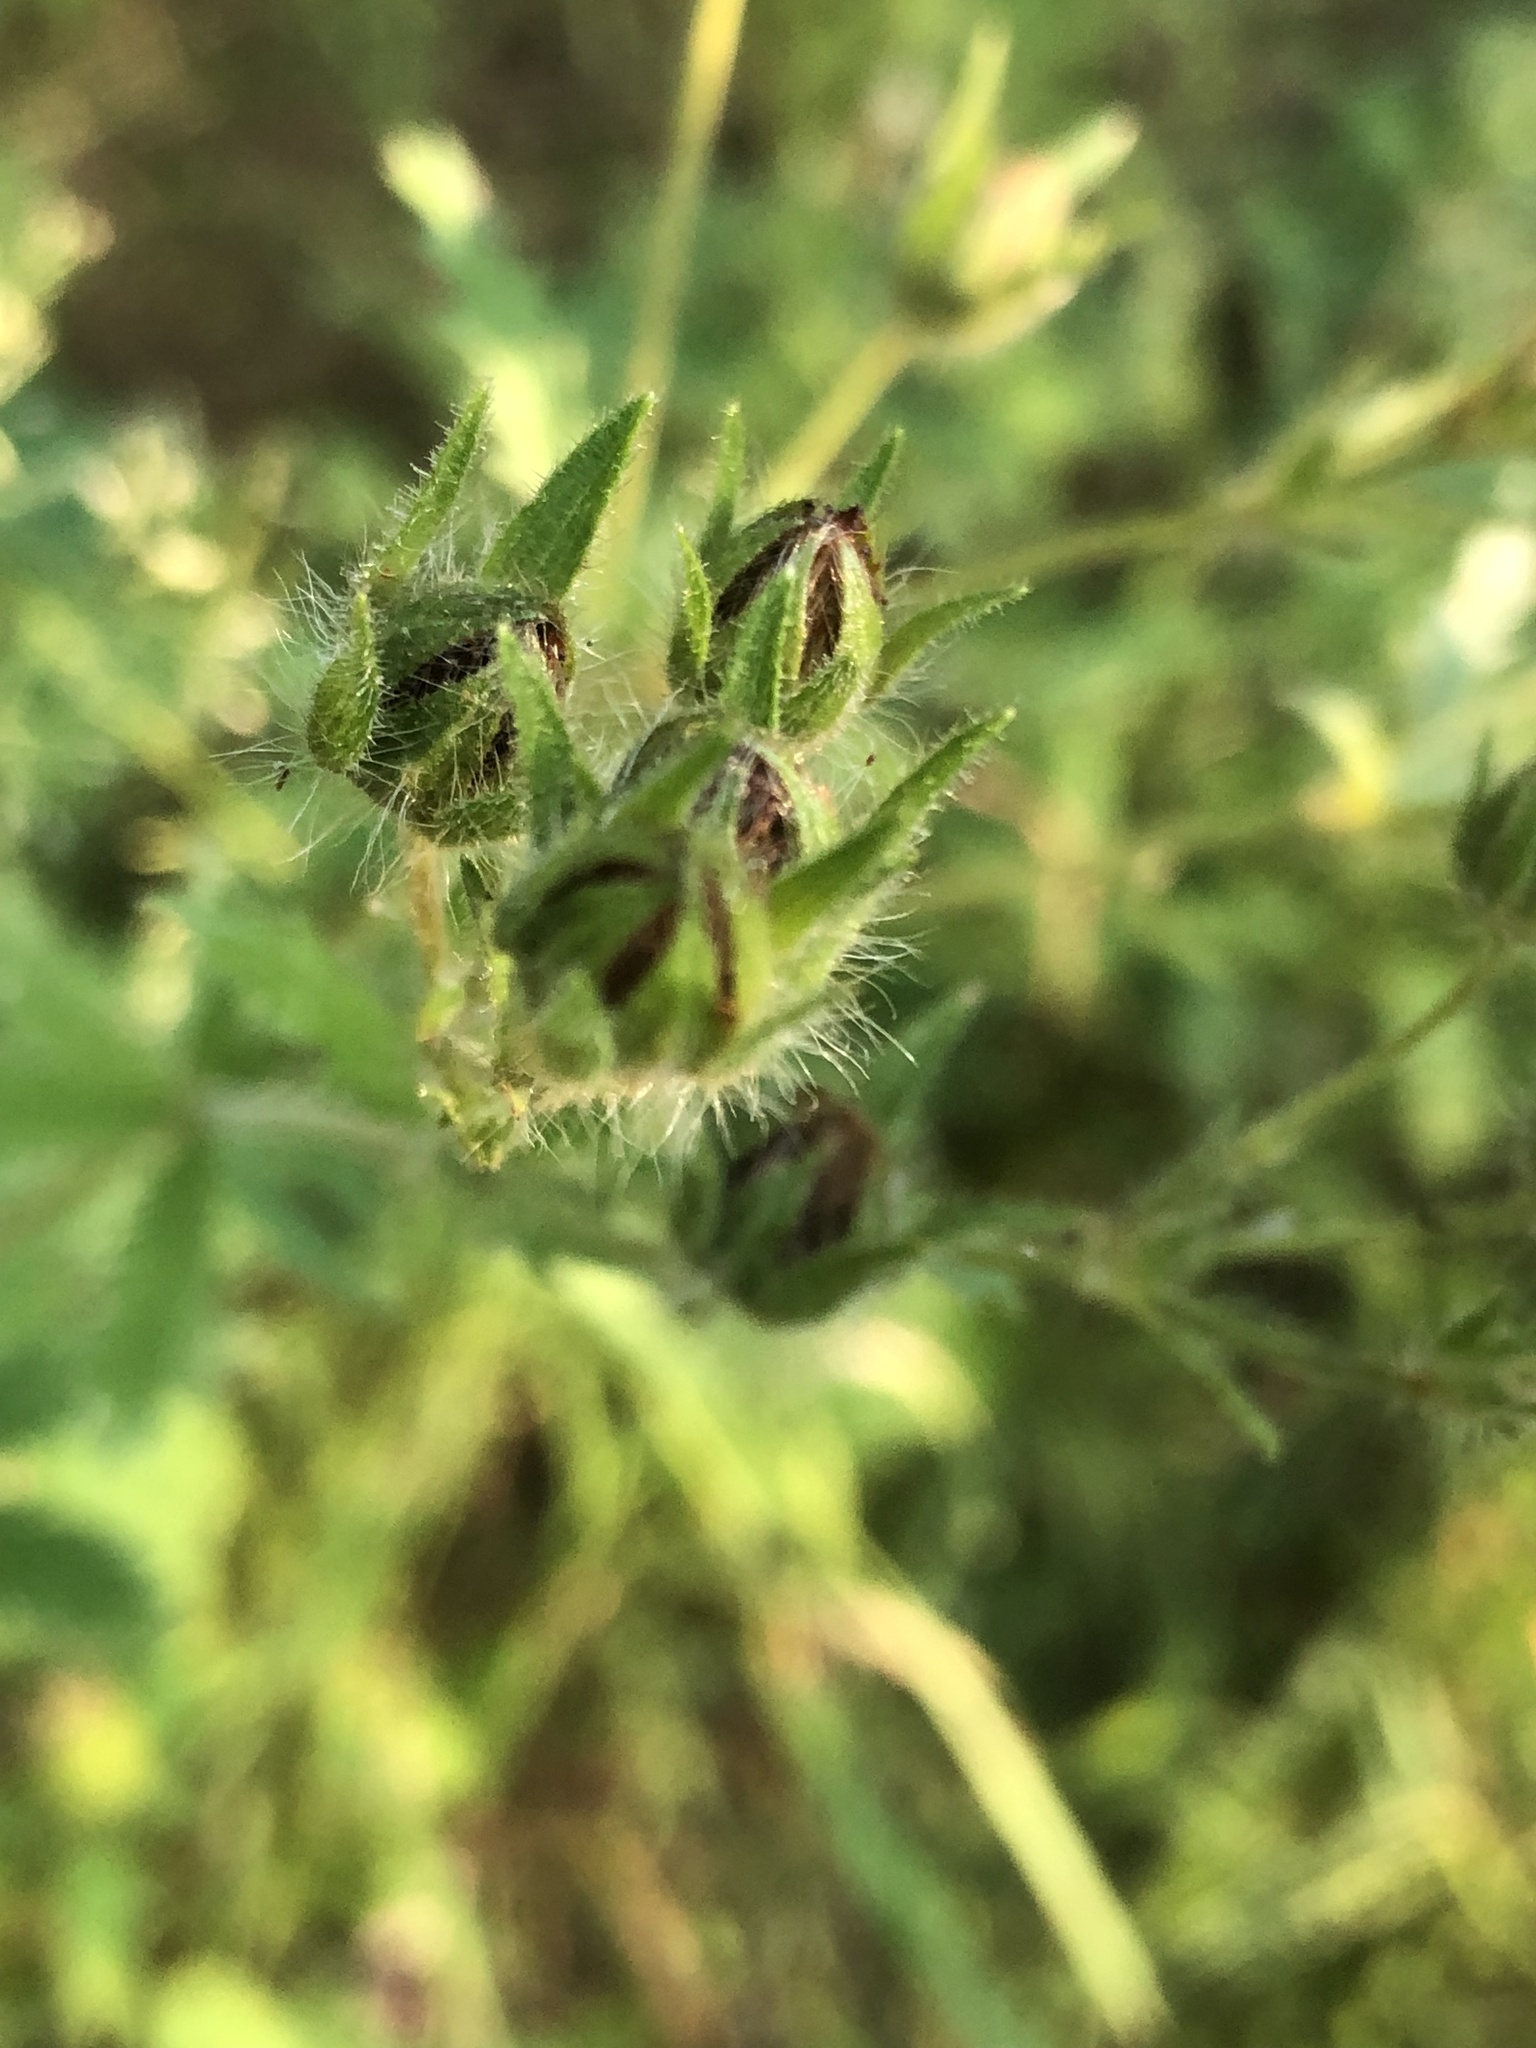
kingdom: Plantae
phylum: Tracheophyta
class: Magnoliopsida
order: Rosales
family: Rosaceae
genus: Potentilla
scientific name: Potentilla recta
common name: Sulphur cinquefoil
